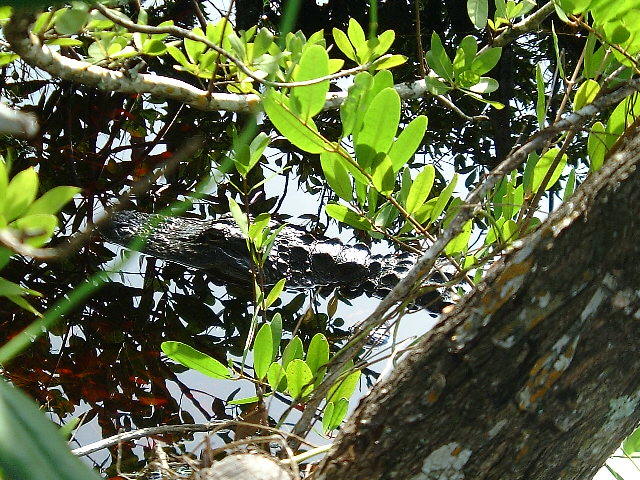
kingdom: Animalia
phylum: Chordata
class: Crocodylia
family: Alligatoridae
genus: Alligator
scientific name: Alligator mississippiensis
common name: American alligator
